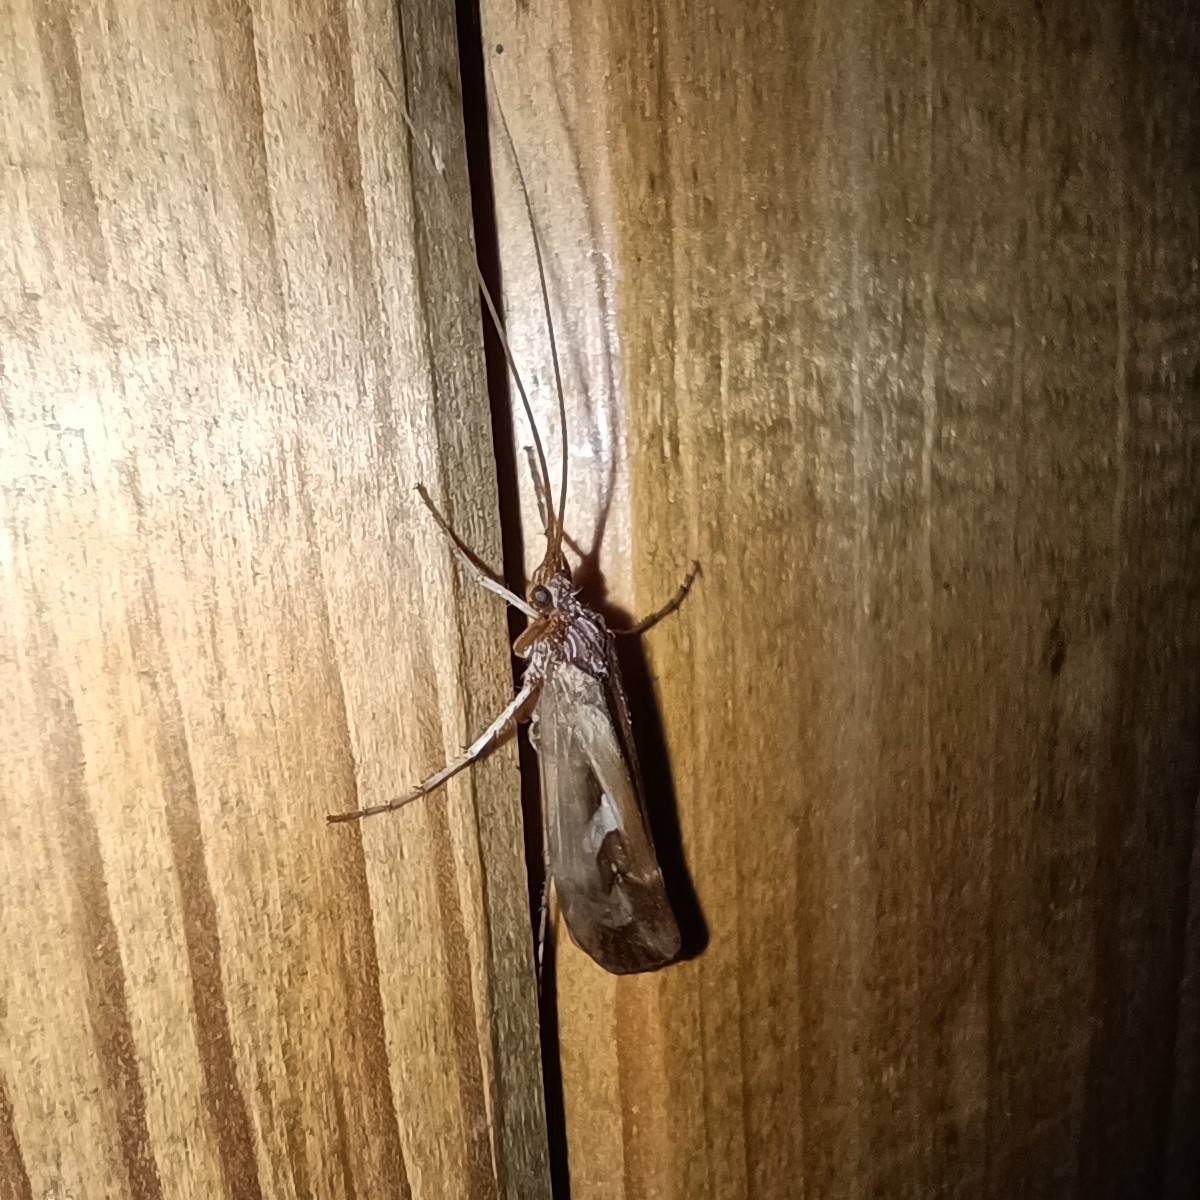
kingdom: Animalia
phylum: Arthropoda
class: Insecta
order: Trichoptera
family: Limnephilidae
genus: Limnephilus
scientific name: Limnephilus rhombicus
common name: Diamond northern caddisfly
